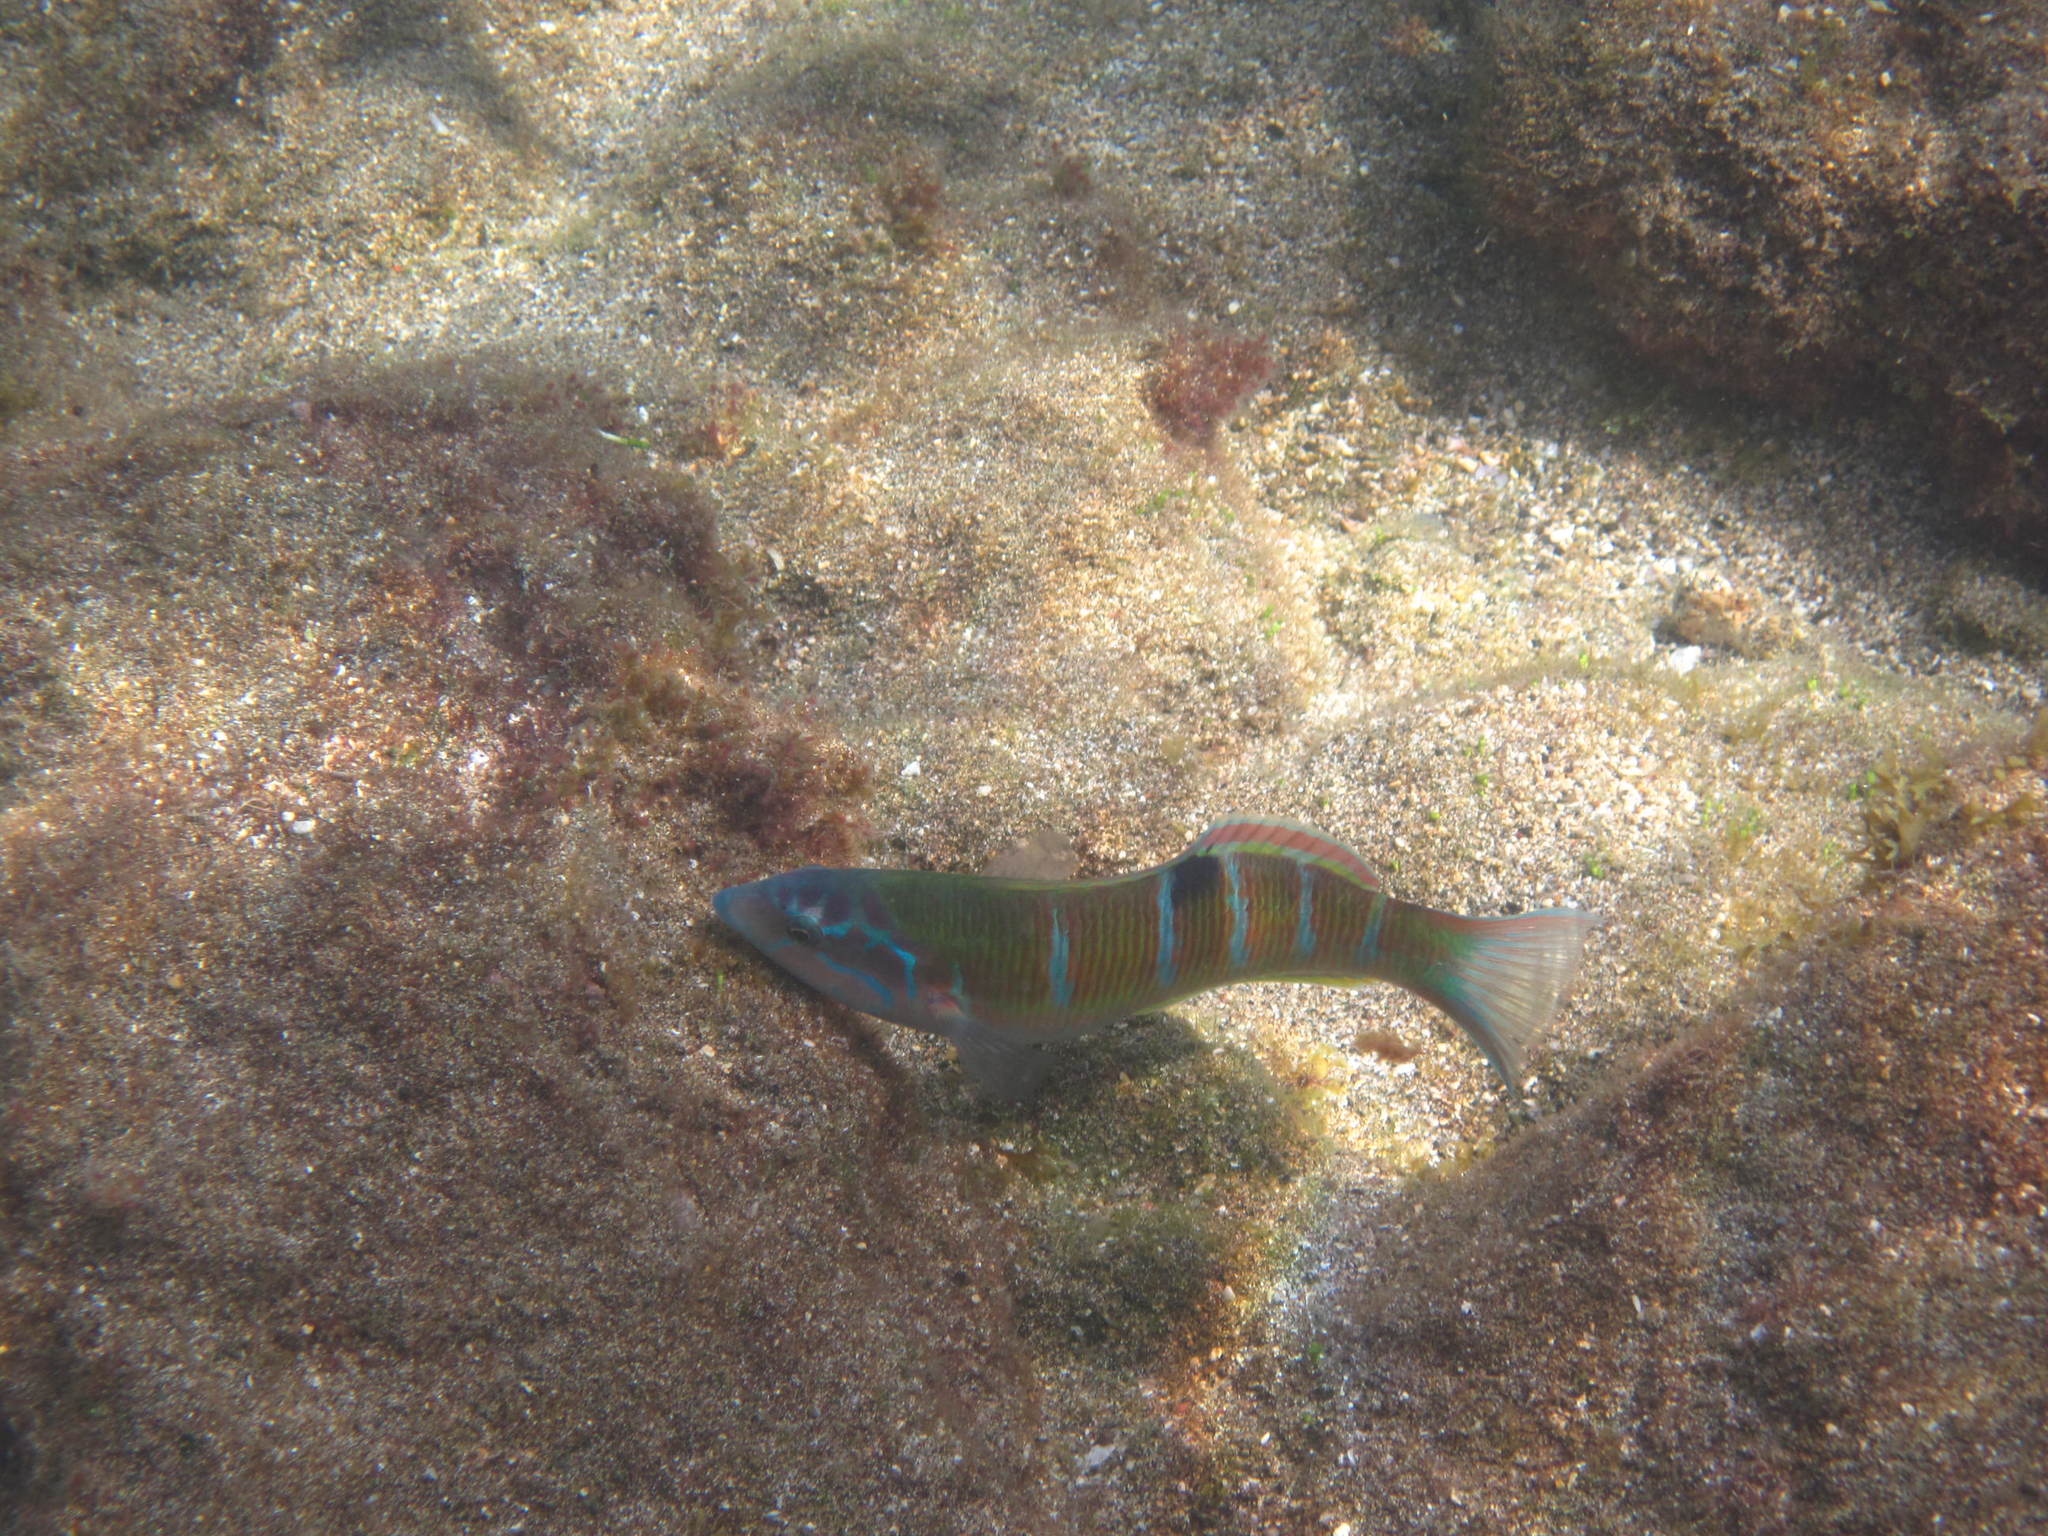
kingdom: Animalia
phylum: Chordata
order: Perciformes
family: Labridae
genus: Thalassoma
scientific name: Thalassoma pavo
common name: Ornate wrasse
